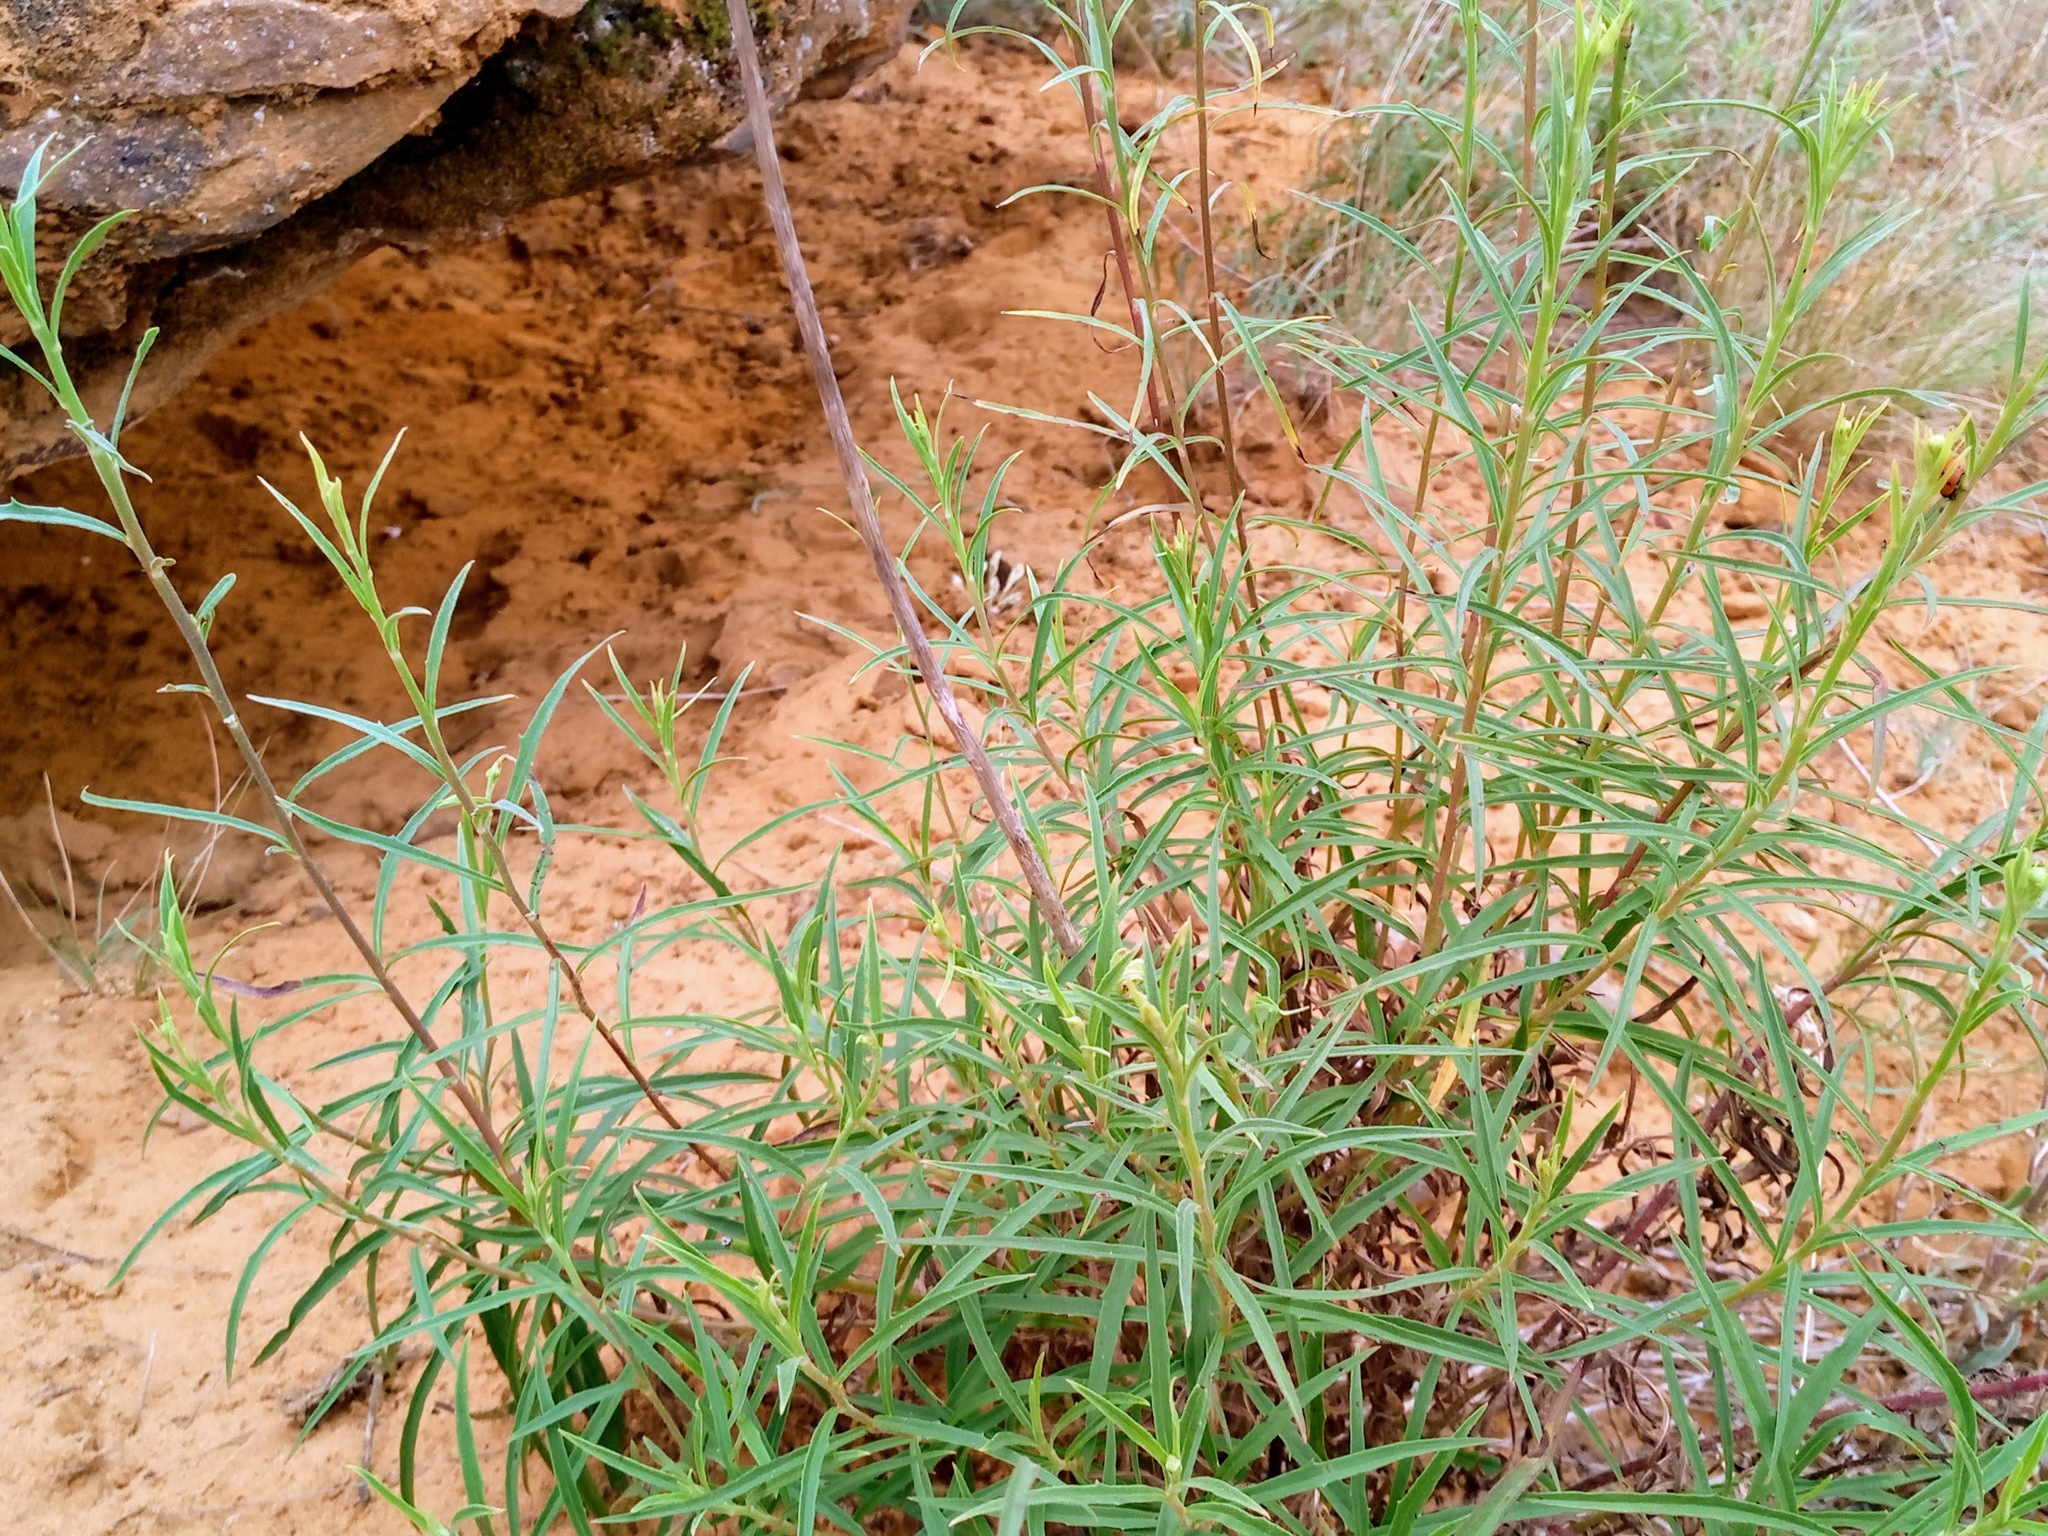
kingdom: Plantae
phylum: Tracheophyta
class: Magnoliopsida
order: Asterales
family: Asteraceae
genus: Hieracium
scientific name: Hieracium umbellatum
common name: Northern hawkweed
